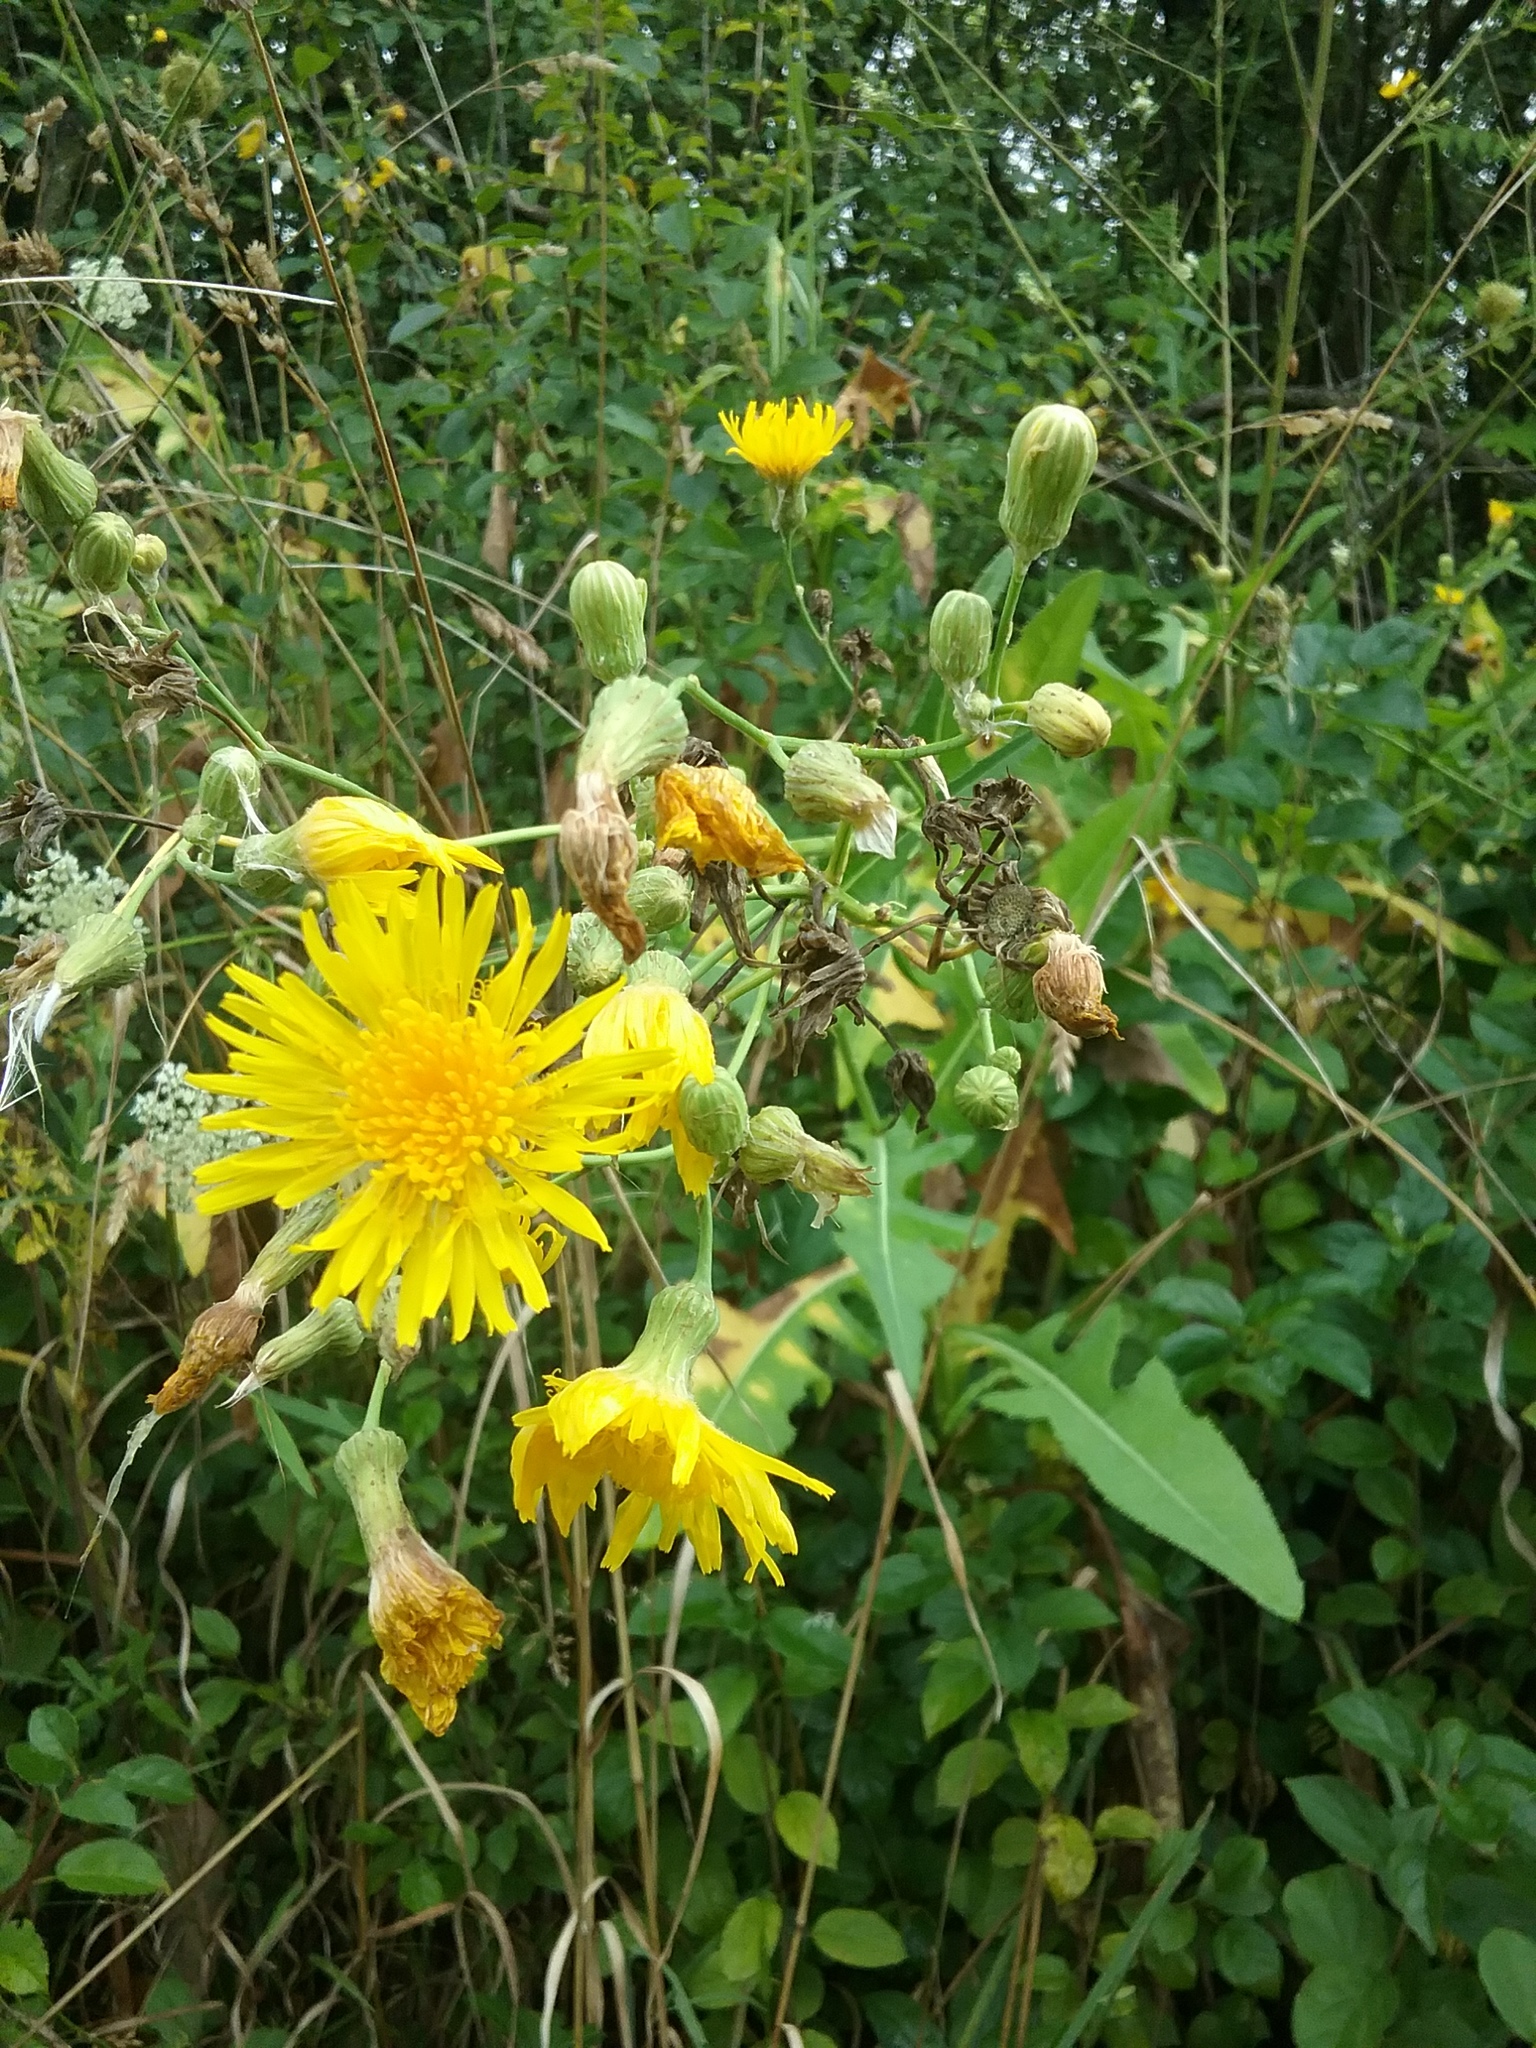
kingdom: Plantae
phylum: Tracheophyta
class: Magnoliopsida
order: Asterales
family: Asteraceae
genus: Sonchus
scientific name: Sonchus arvensis
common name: Perennial sow-thistle
